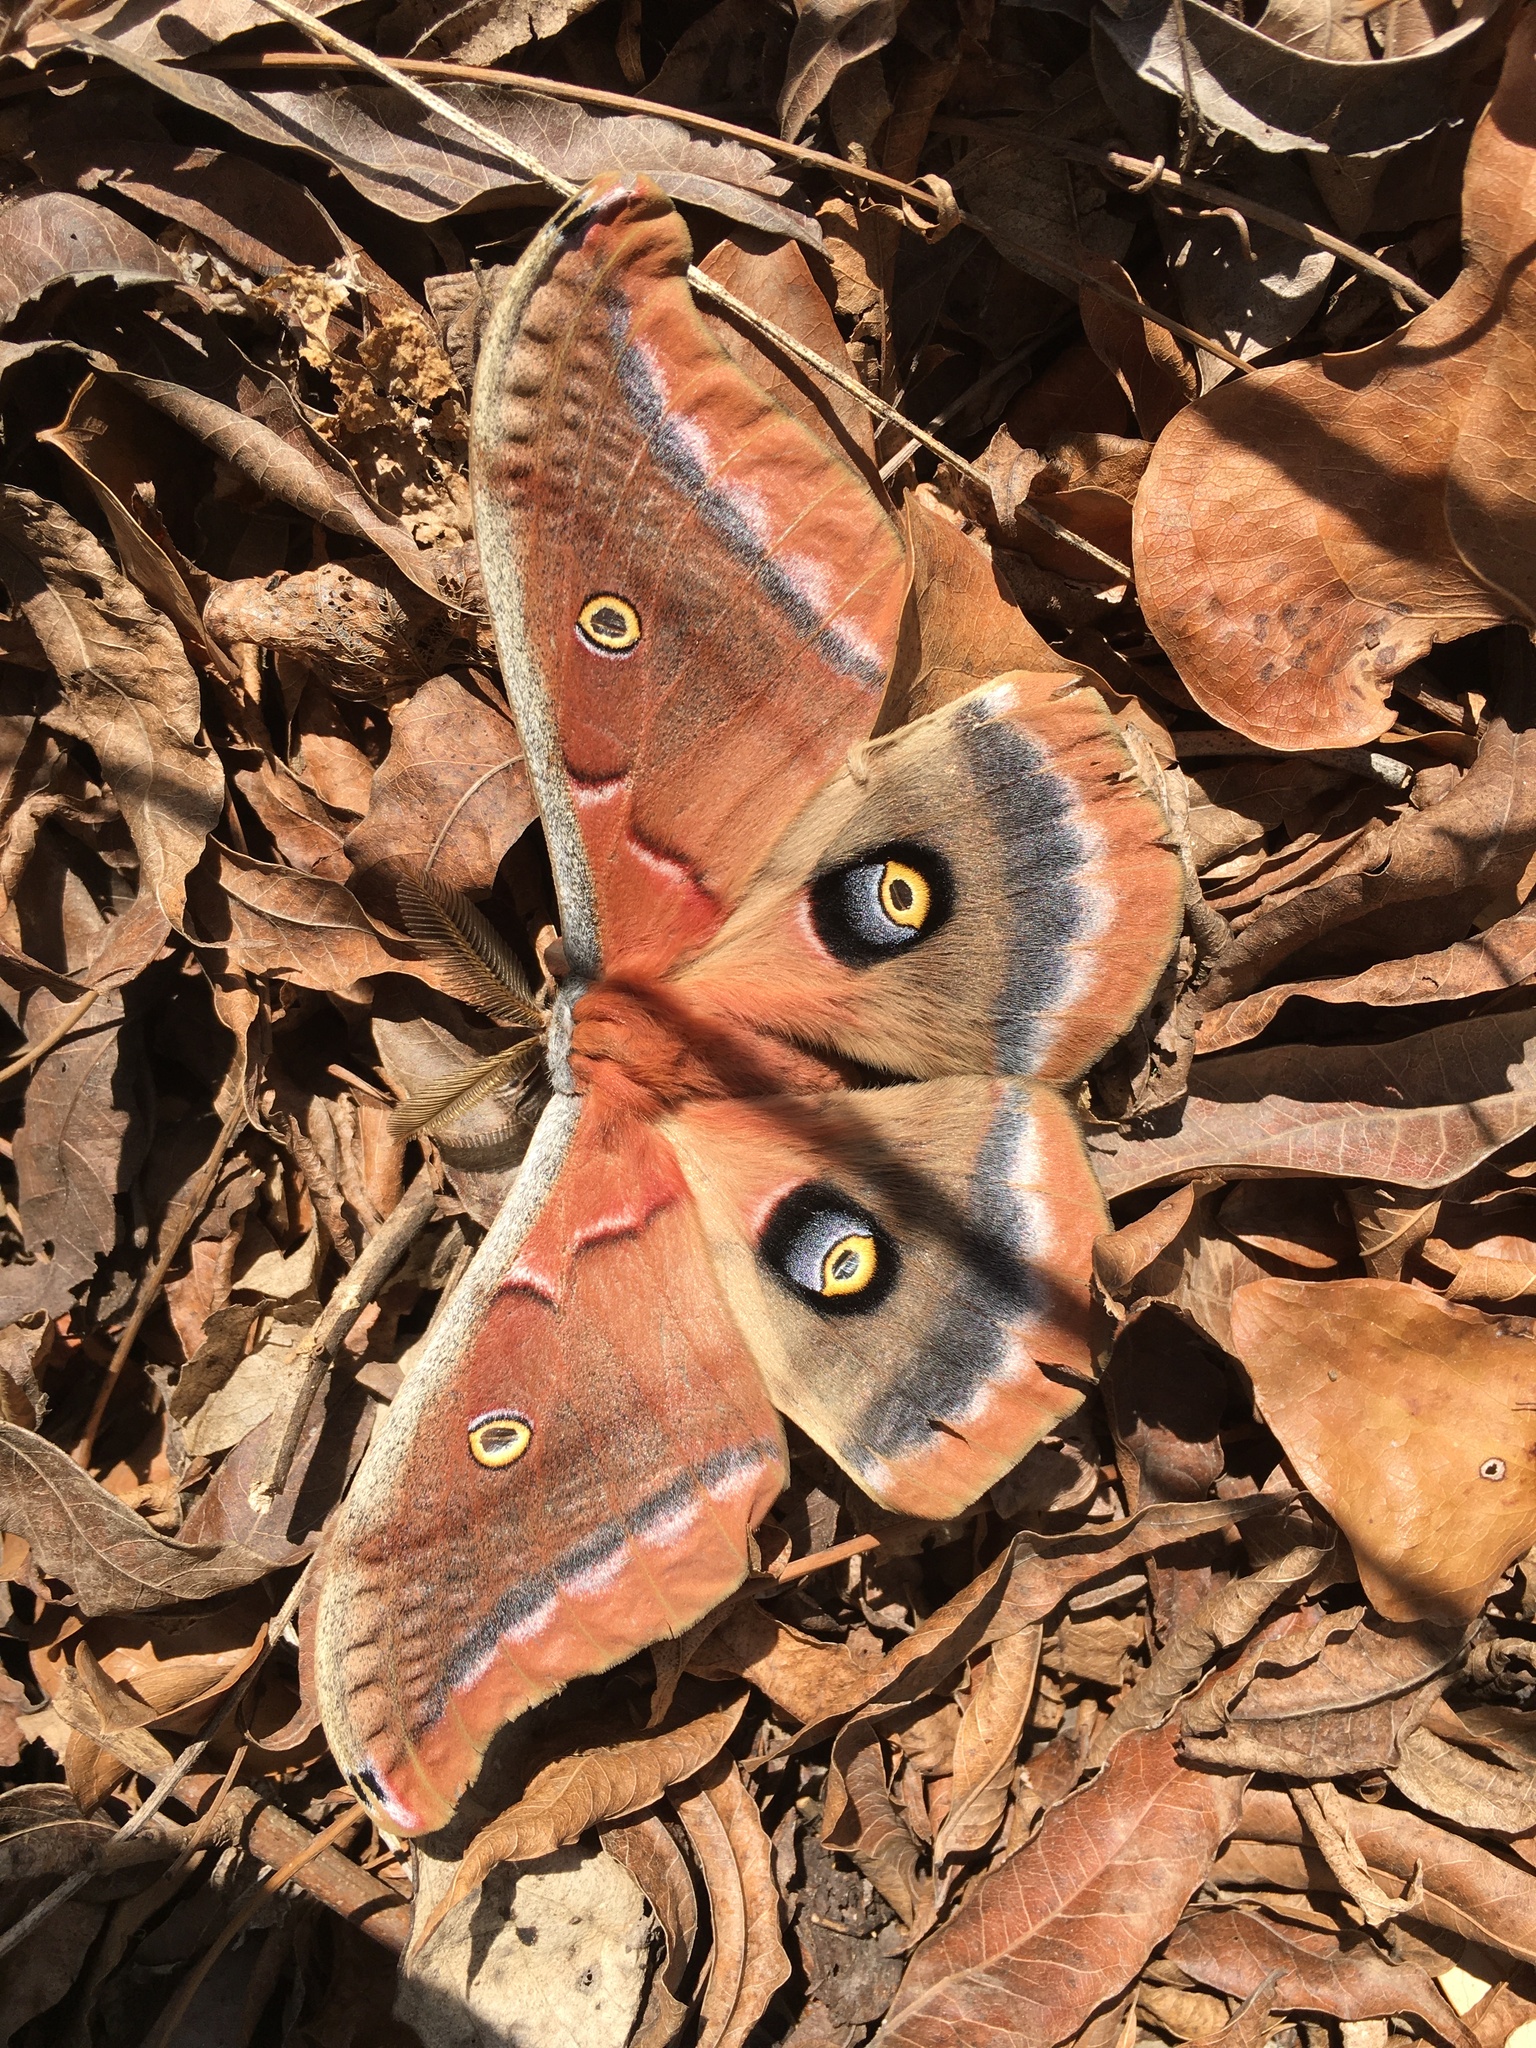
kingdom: Animalia
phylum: Arthropoda
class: Insecta
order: Lepidoptera
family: Saturniidae
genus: Antheraea
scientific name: Antheraea polyphemus
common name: Polyphemus moth
